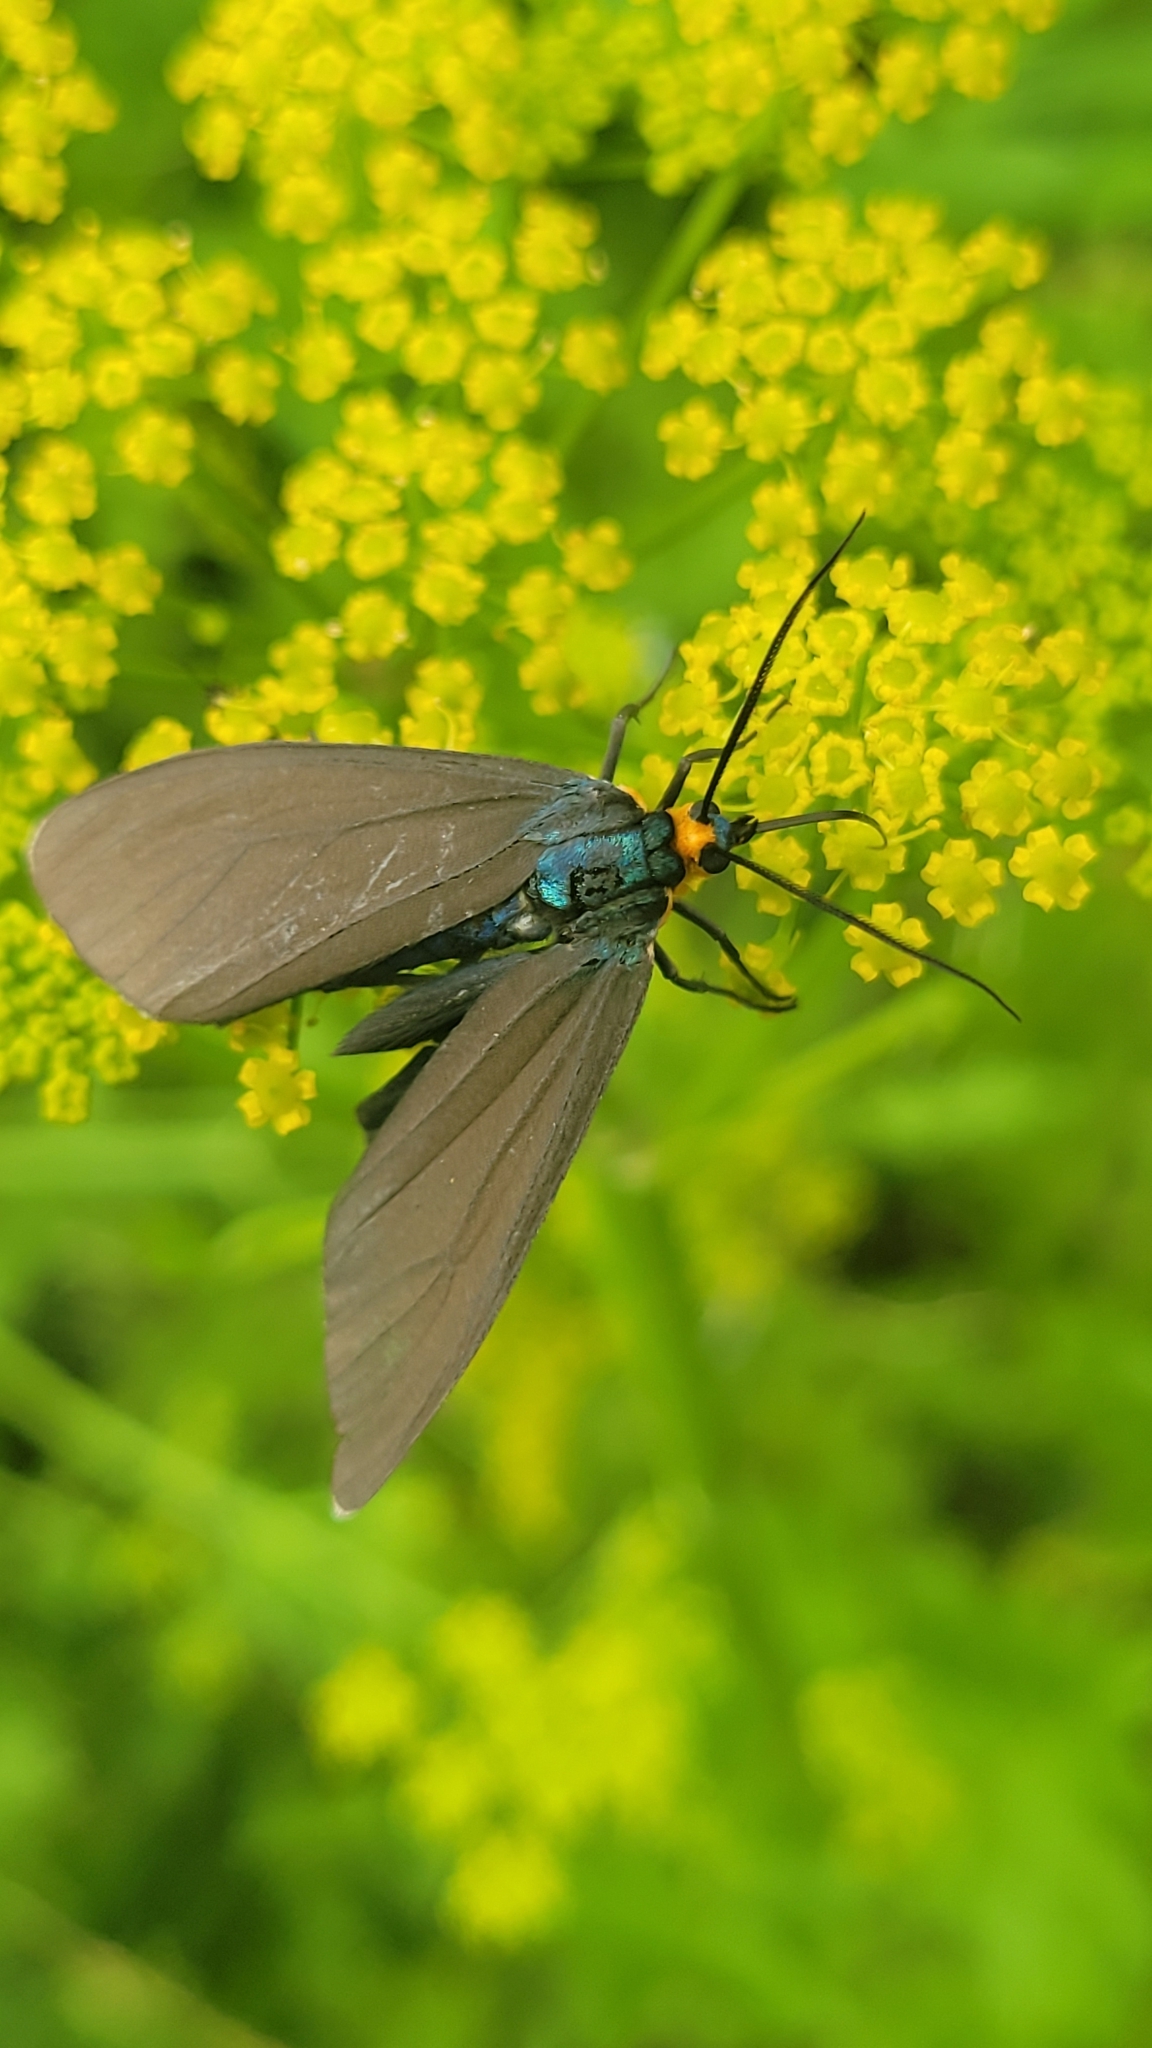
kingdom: Animalia
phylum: Arthropoda
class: Insecta
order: Lepidoptera
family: Erebidae
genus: Ctenucha
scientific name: Ctenucha virginica
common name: Virginia ctenucha moth
